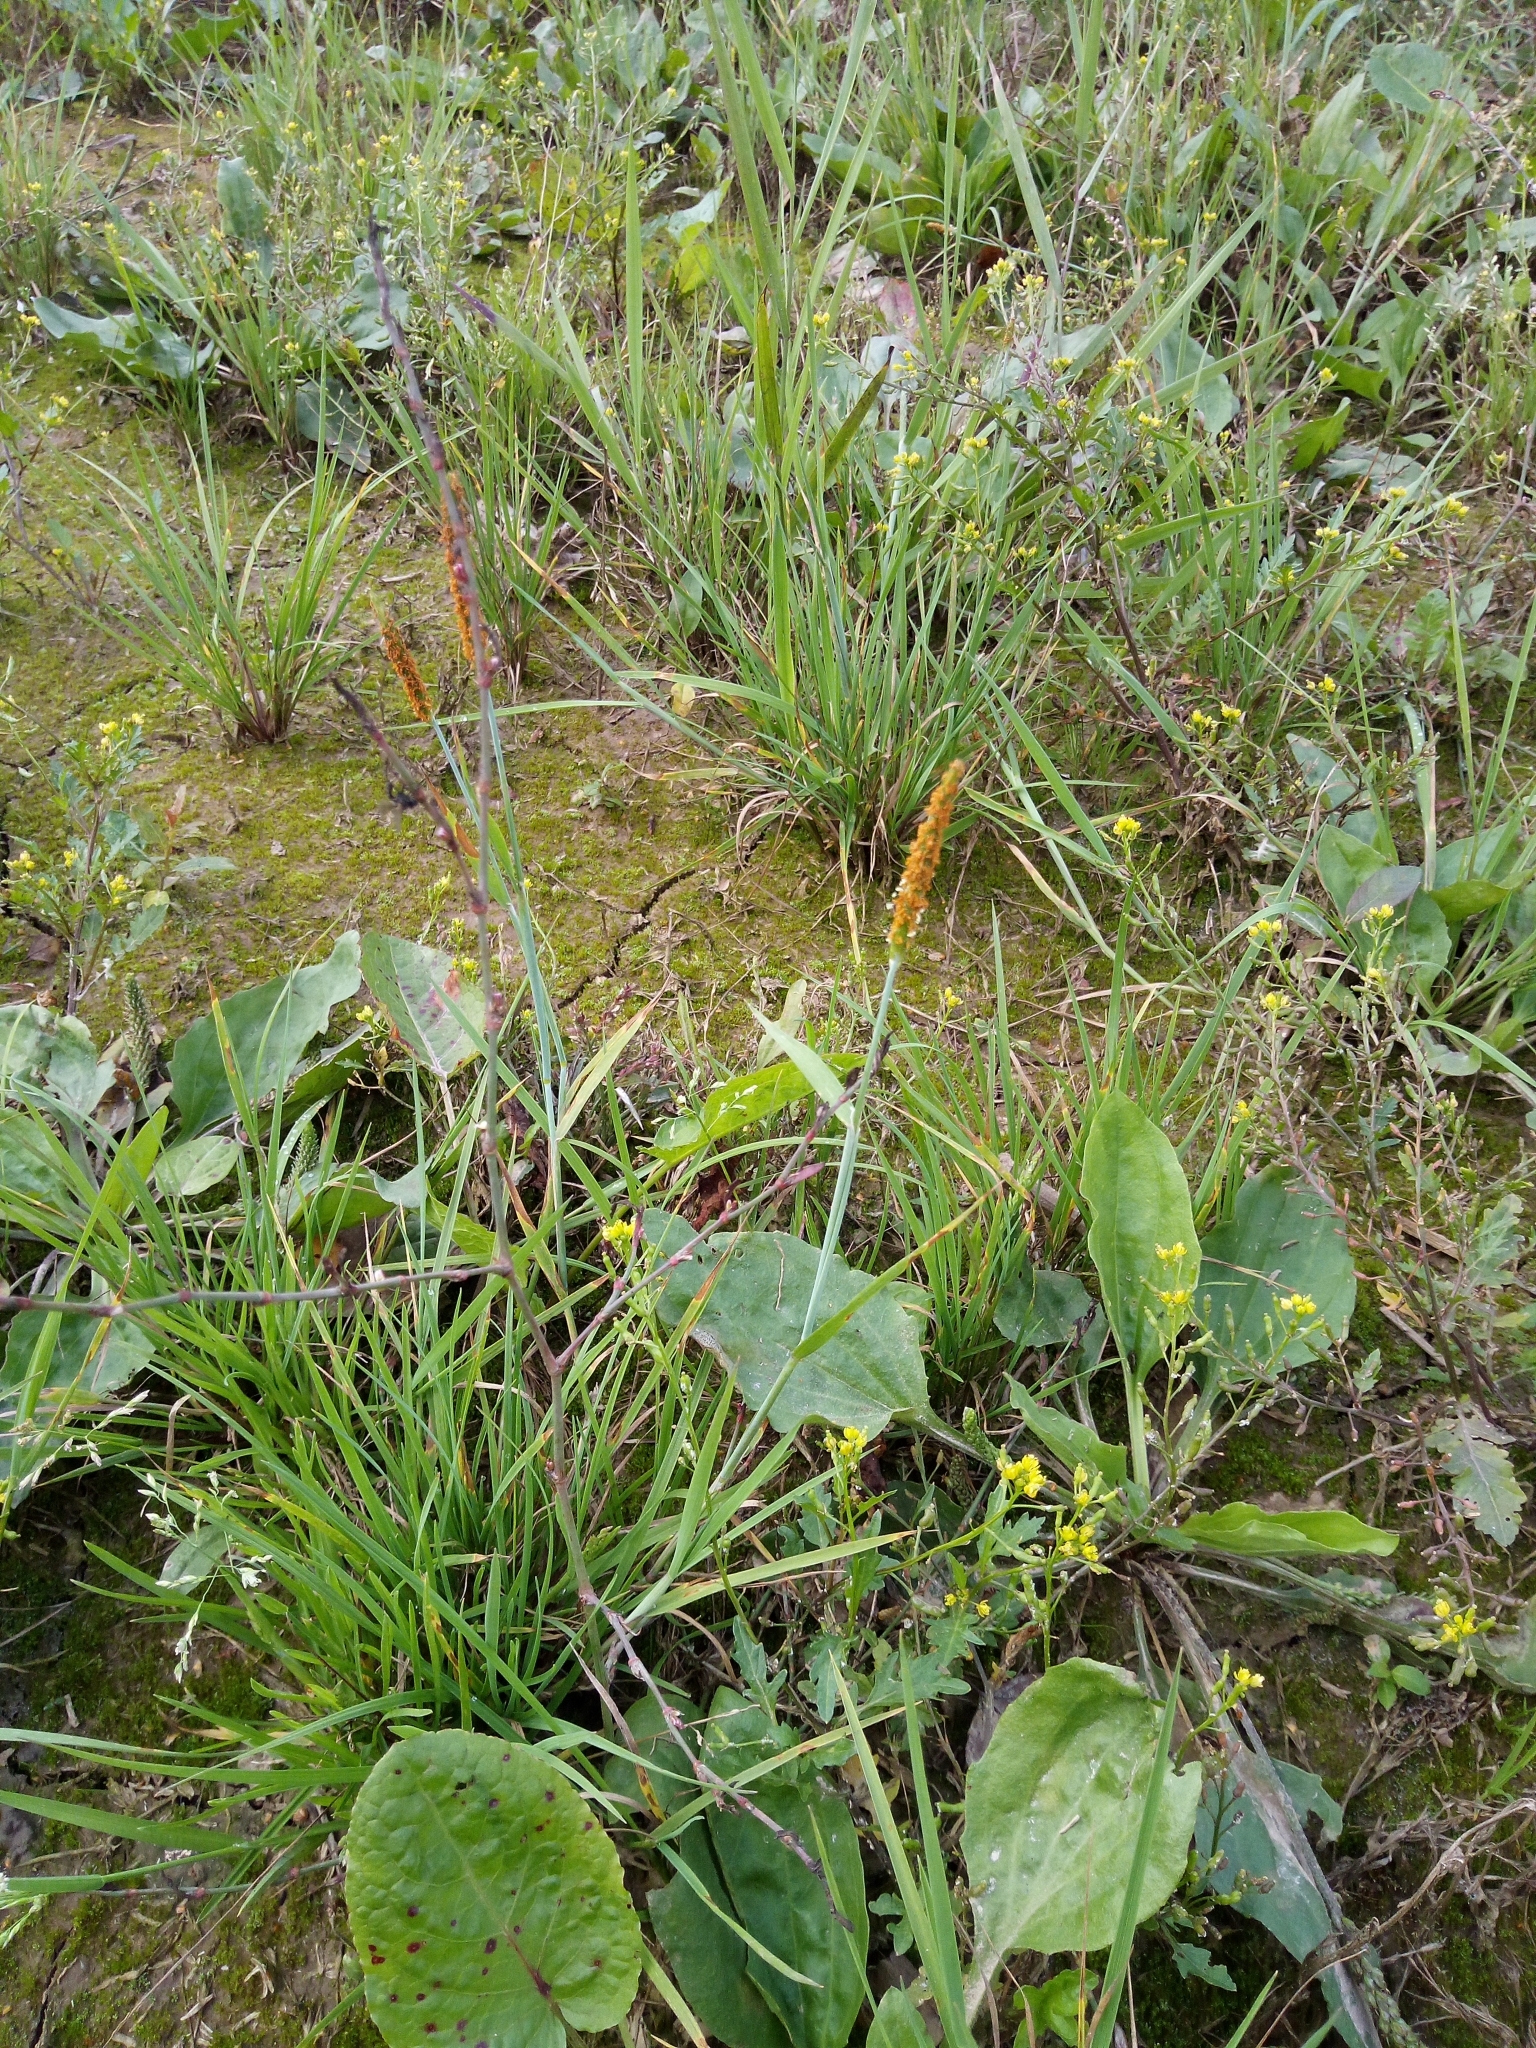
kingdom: Plantae
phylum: Tracheophyta
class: Liliopsida
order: Poales
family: Poaceae
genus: Alopecurus
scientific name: Alopecurus aequalis
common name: Orange foxtail
